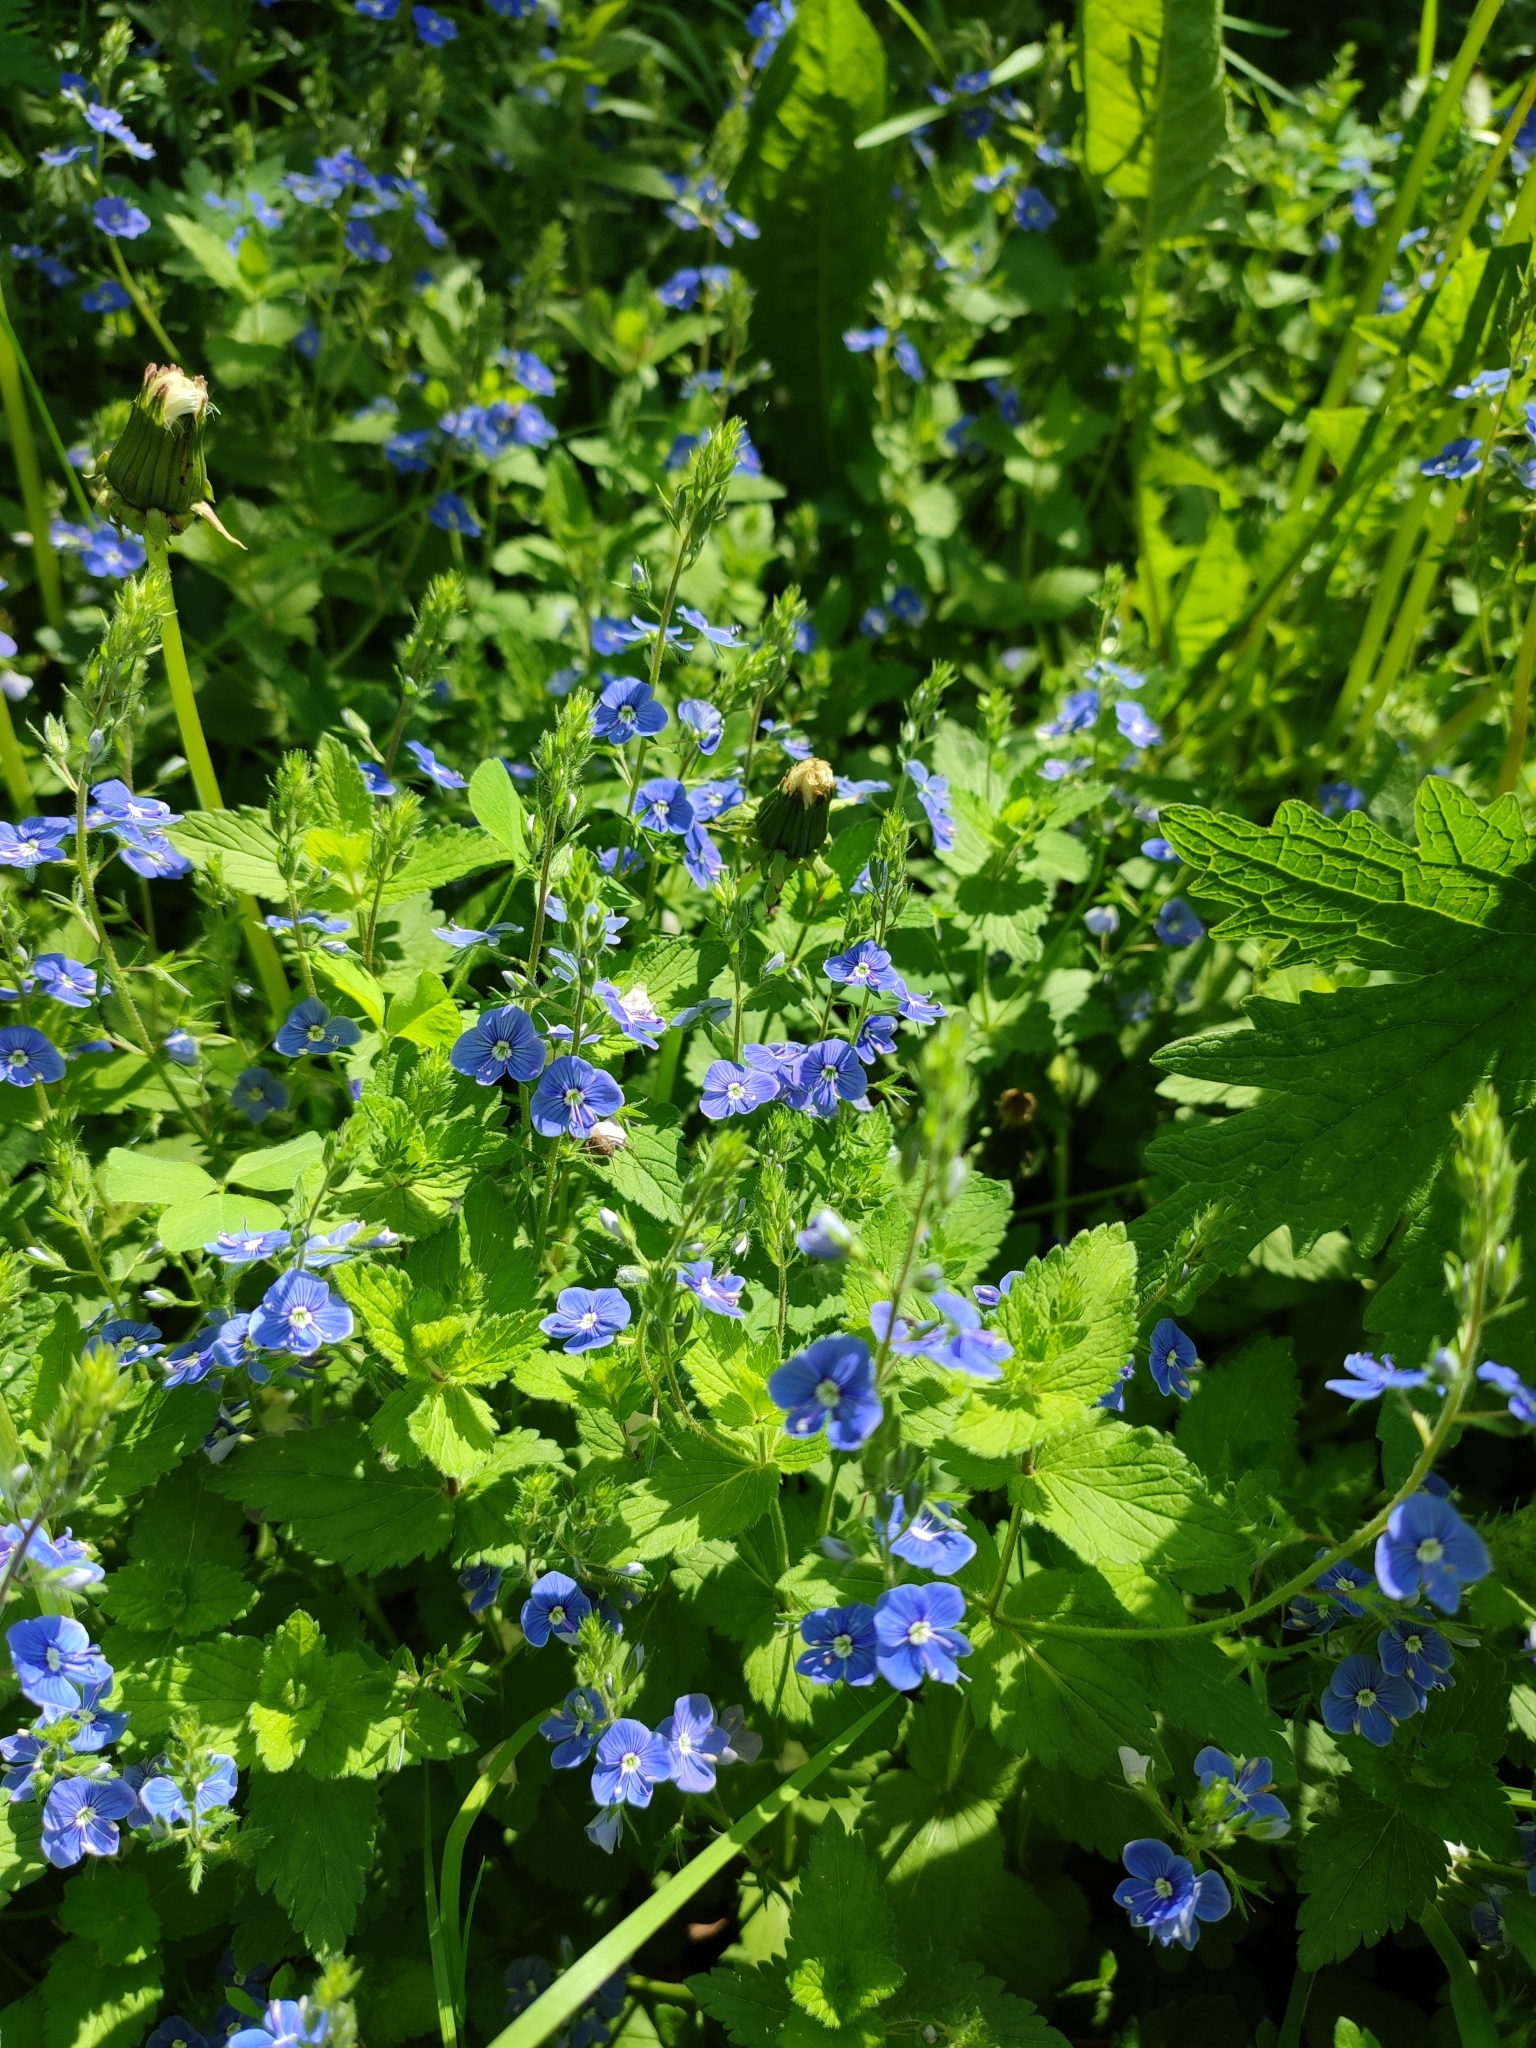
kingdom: Plantae
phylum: Tracheophyta
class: Magnoliopsida
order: Lamiales
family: Plantaginaceae
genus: Veronica
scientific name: Veronica chamaedrys
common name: Germander speedwell
